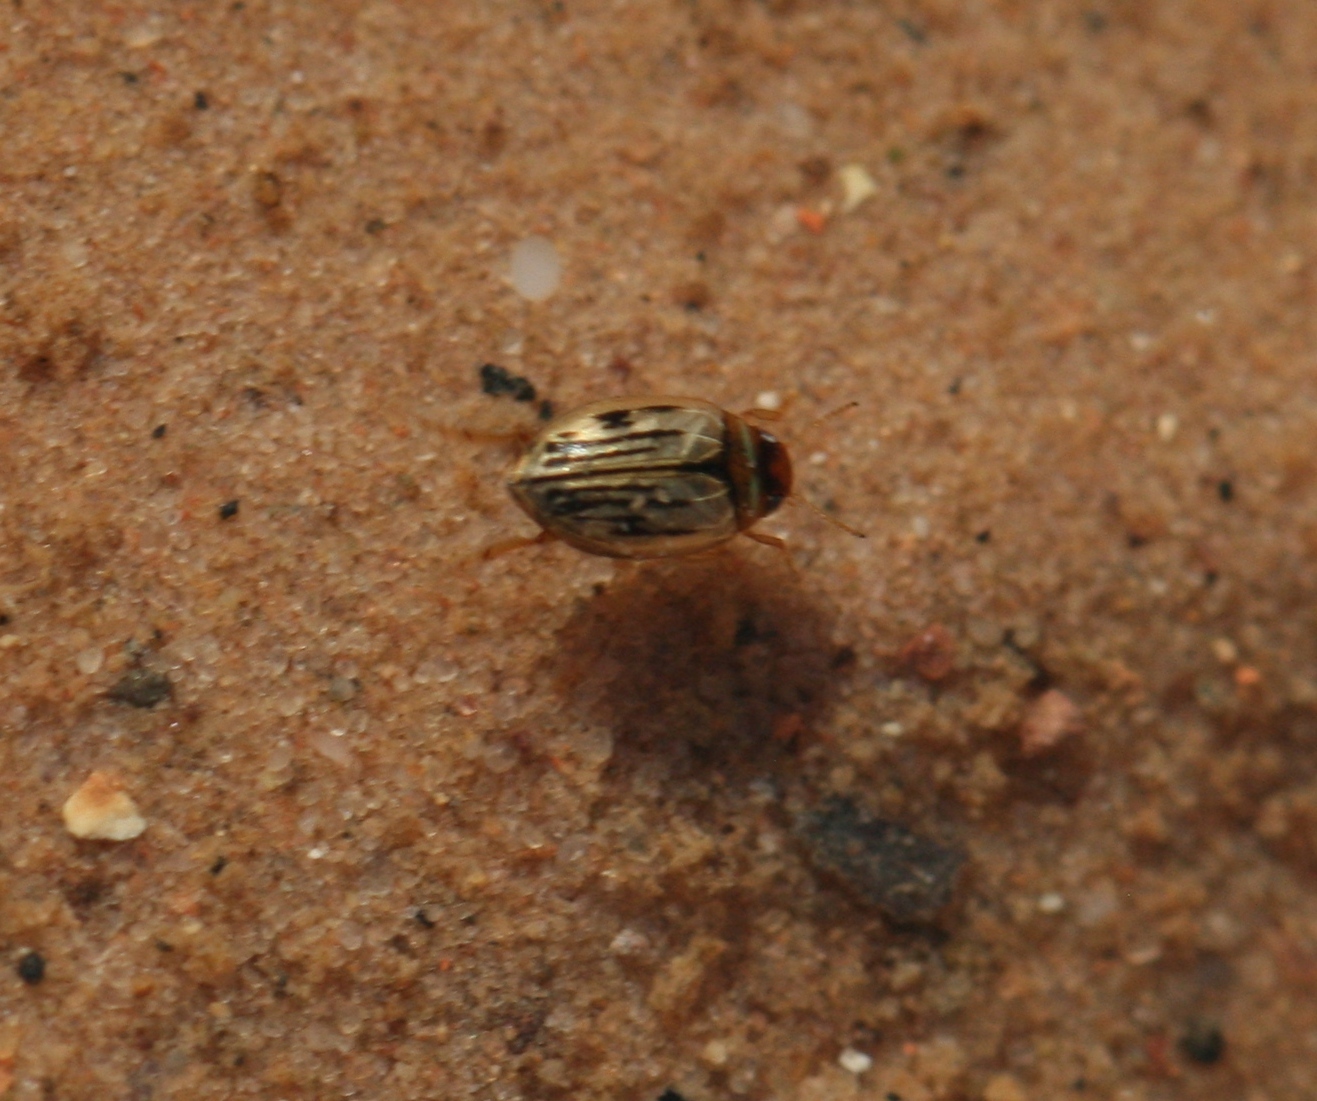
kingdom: Animalia
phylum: Arthropoda
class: Insecta
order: Coleoptera
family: Dytiscidae
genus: Hygrotus
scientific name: Hygrotus confluens
